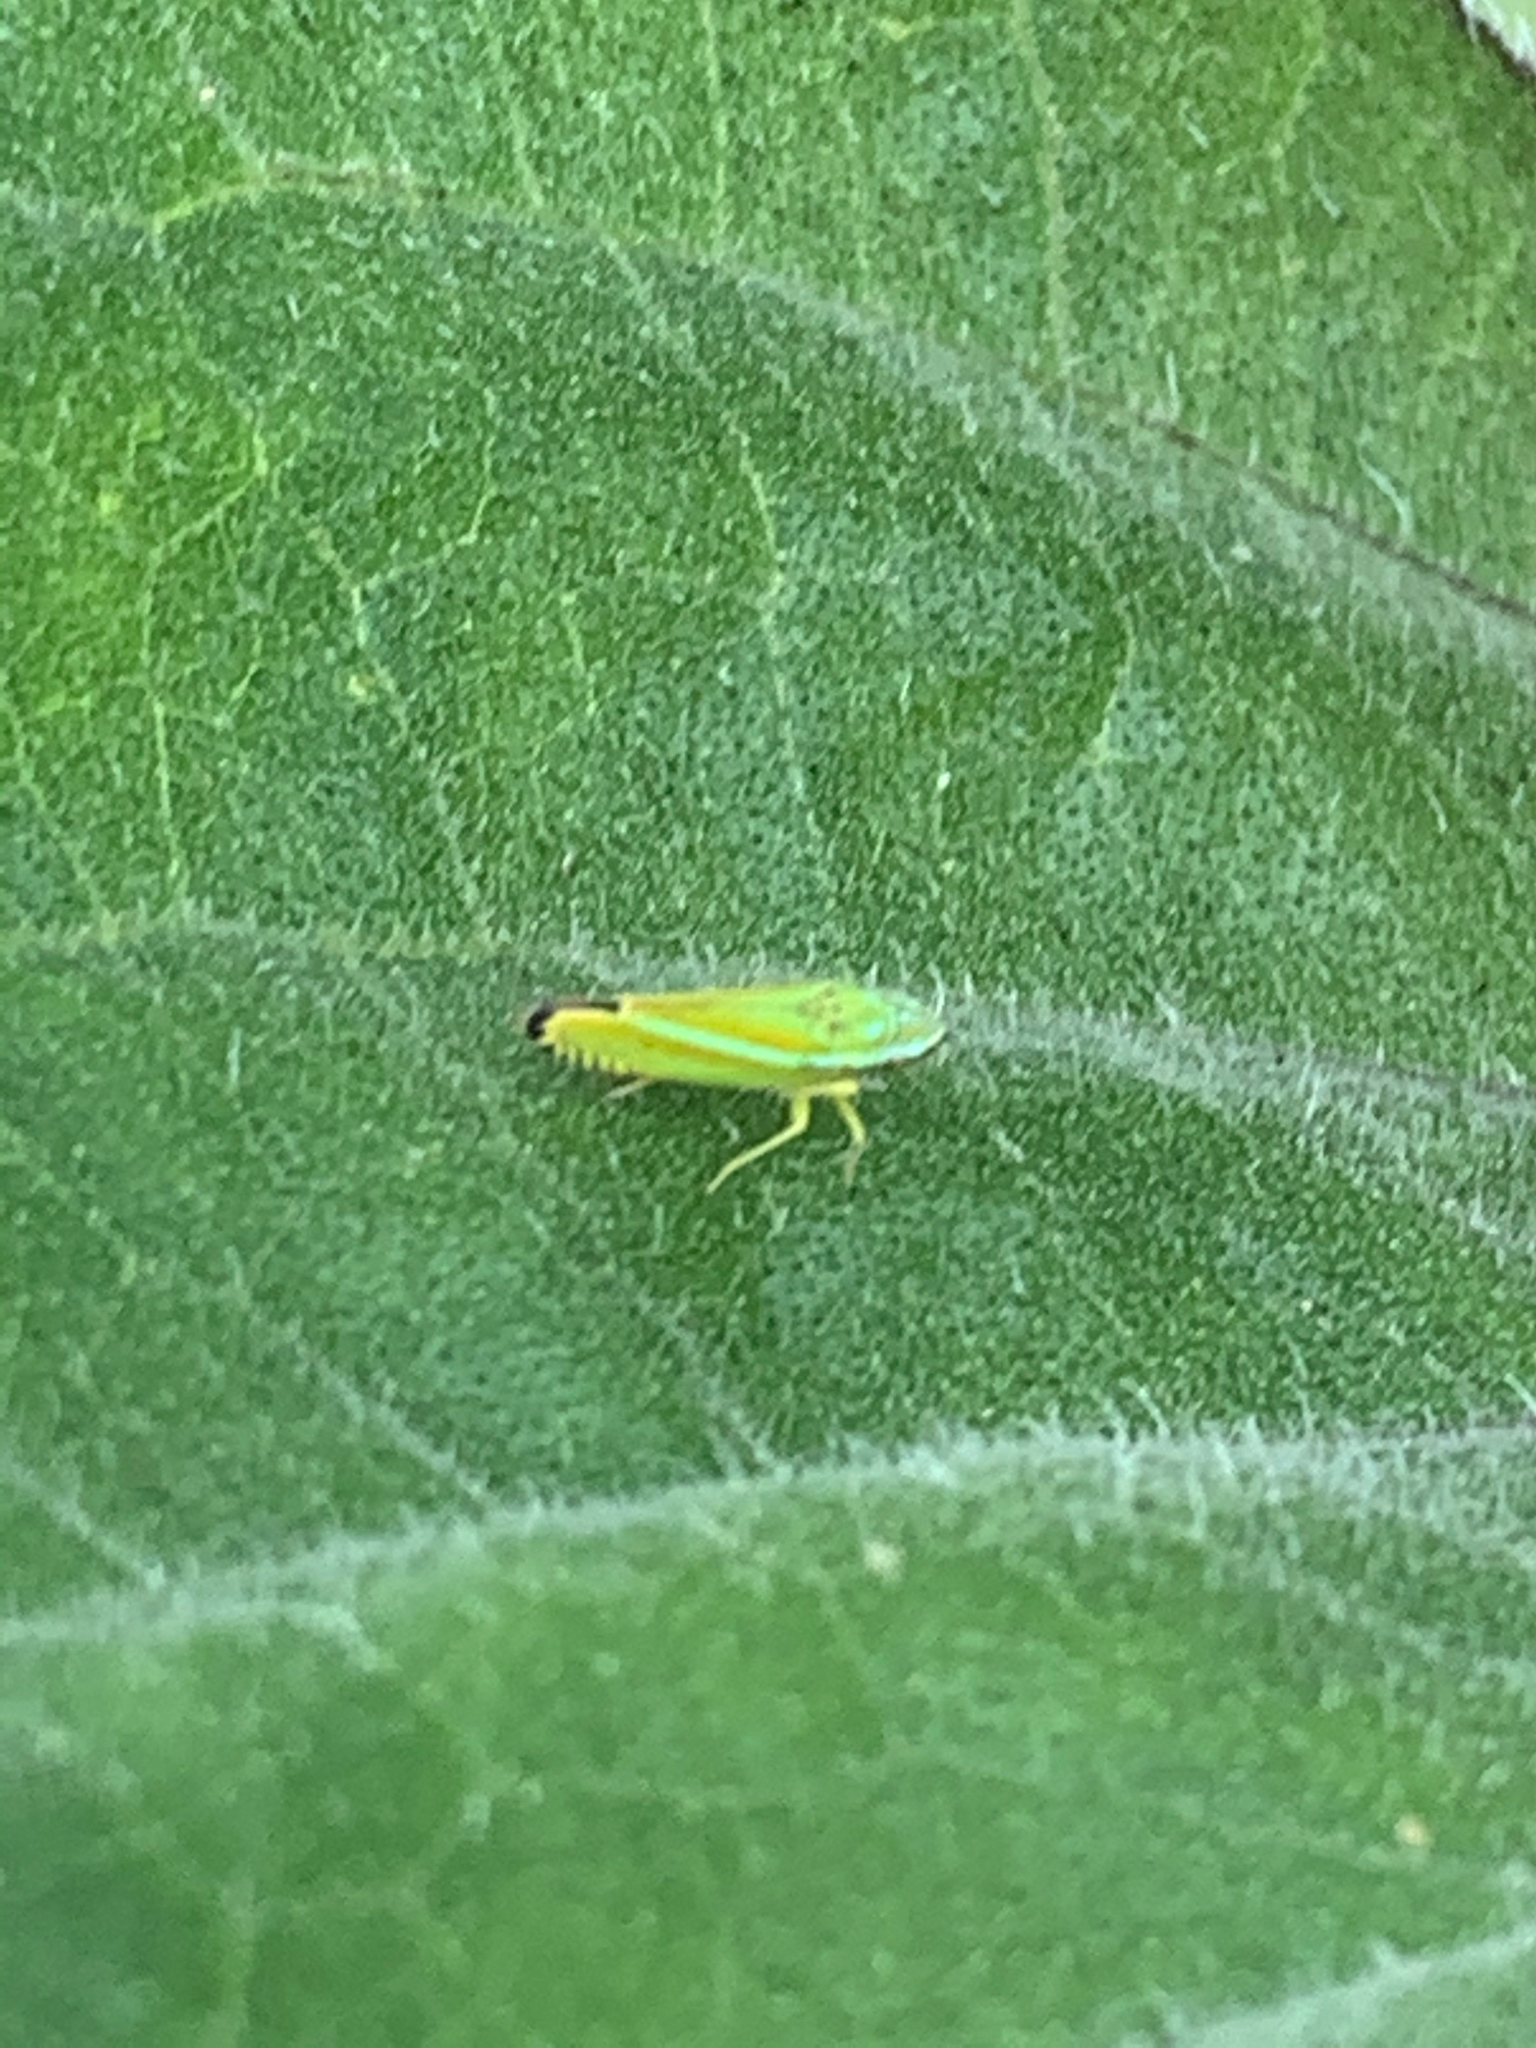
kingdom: Animalia
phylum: Arthropoda
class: Insecta
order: Hemiptera
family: Cicadellidae
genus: Graphocephala
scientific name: Graphocephala versuta
